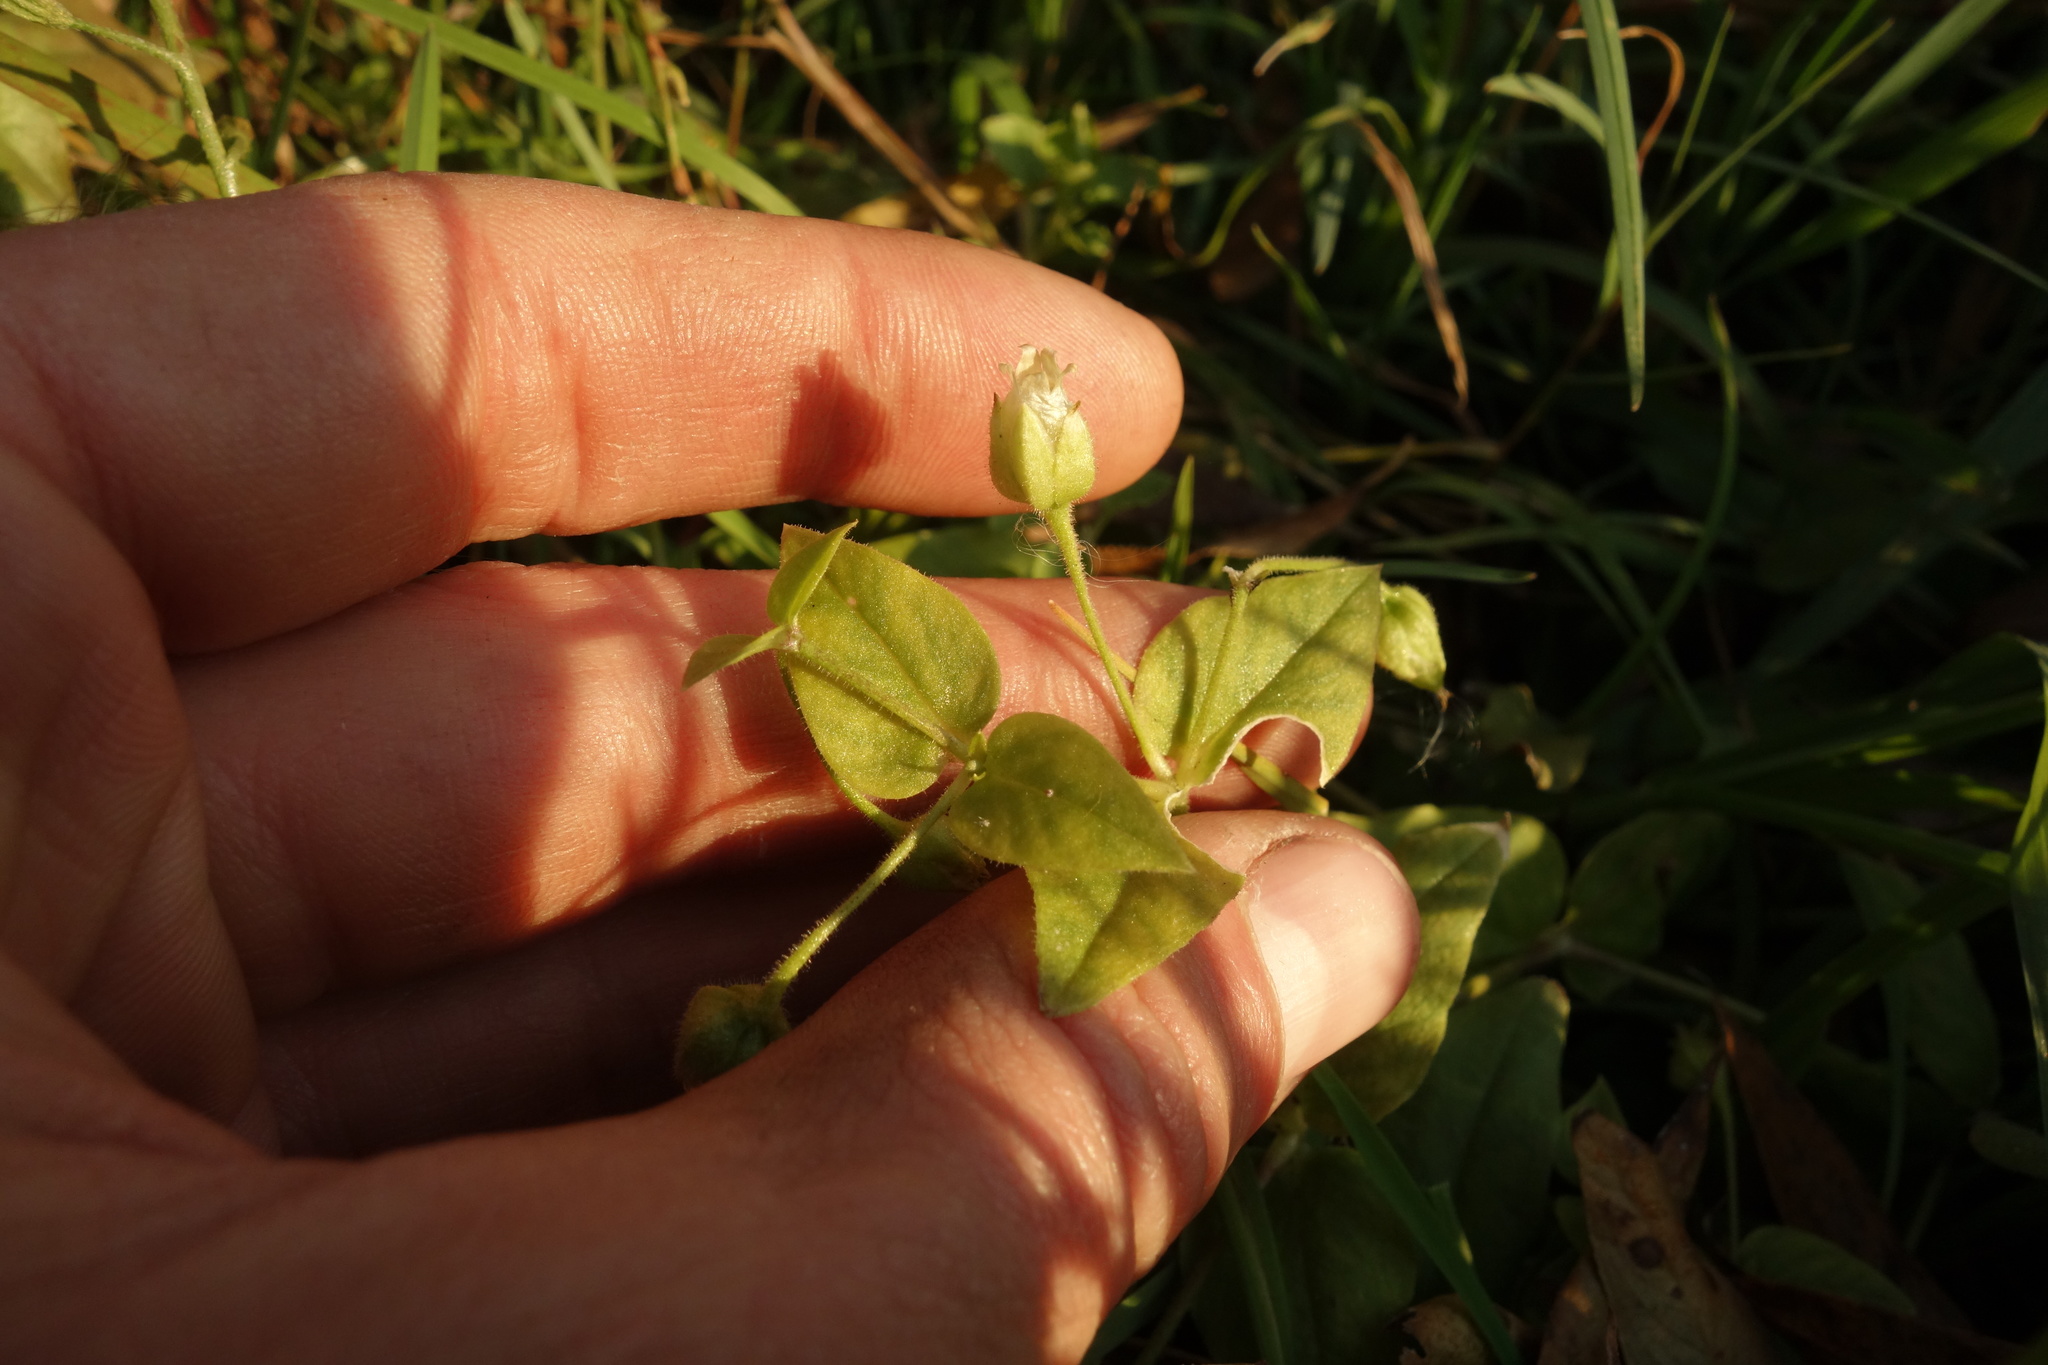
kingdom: Plantae
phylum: Tracheophyta
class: Magnoliopsida
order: Caryophyllales
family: Caryophyllaceae
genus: Stellaria
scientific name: Stellaria aquatica
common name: Water chickweed
